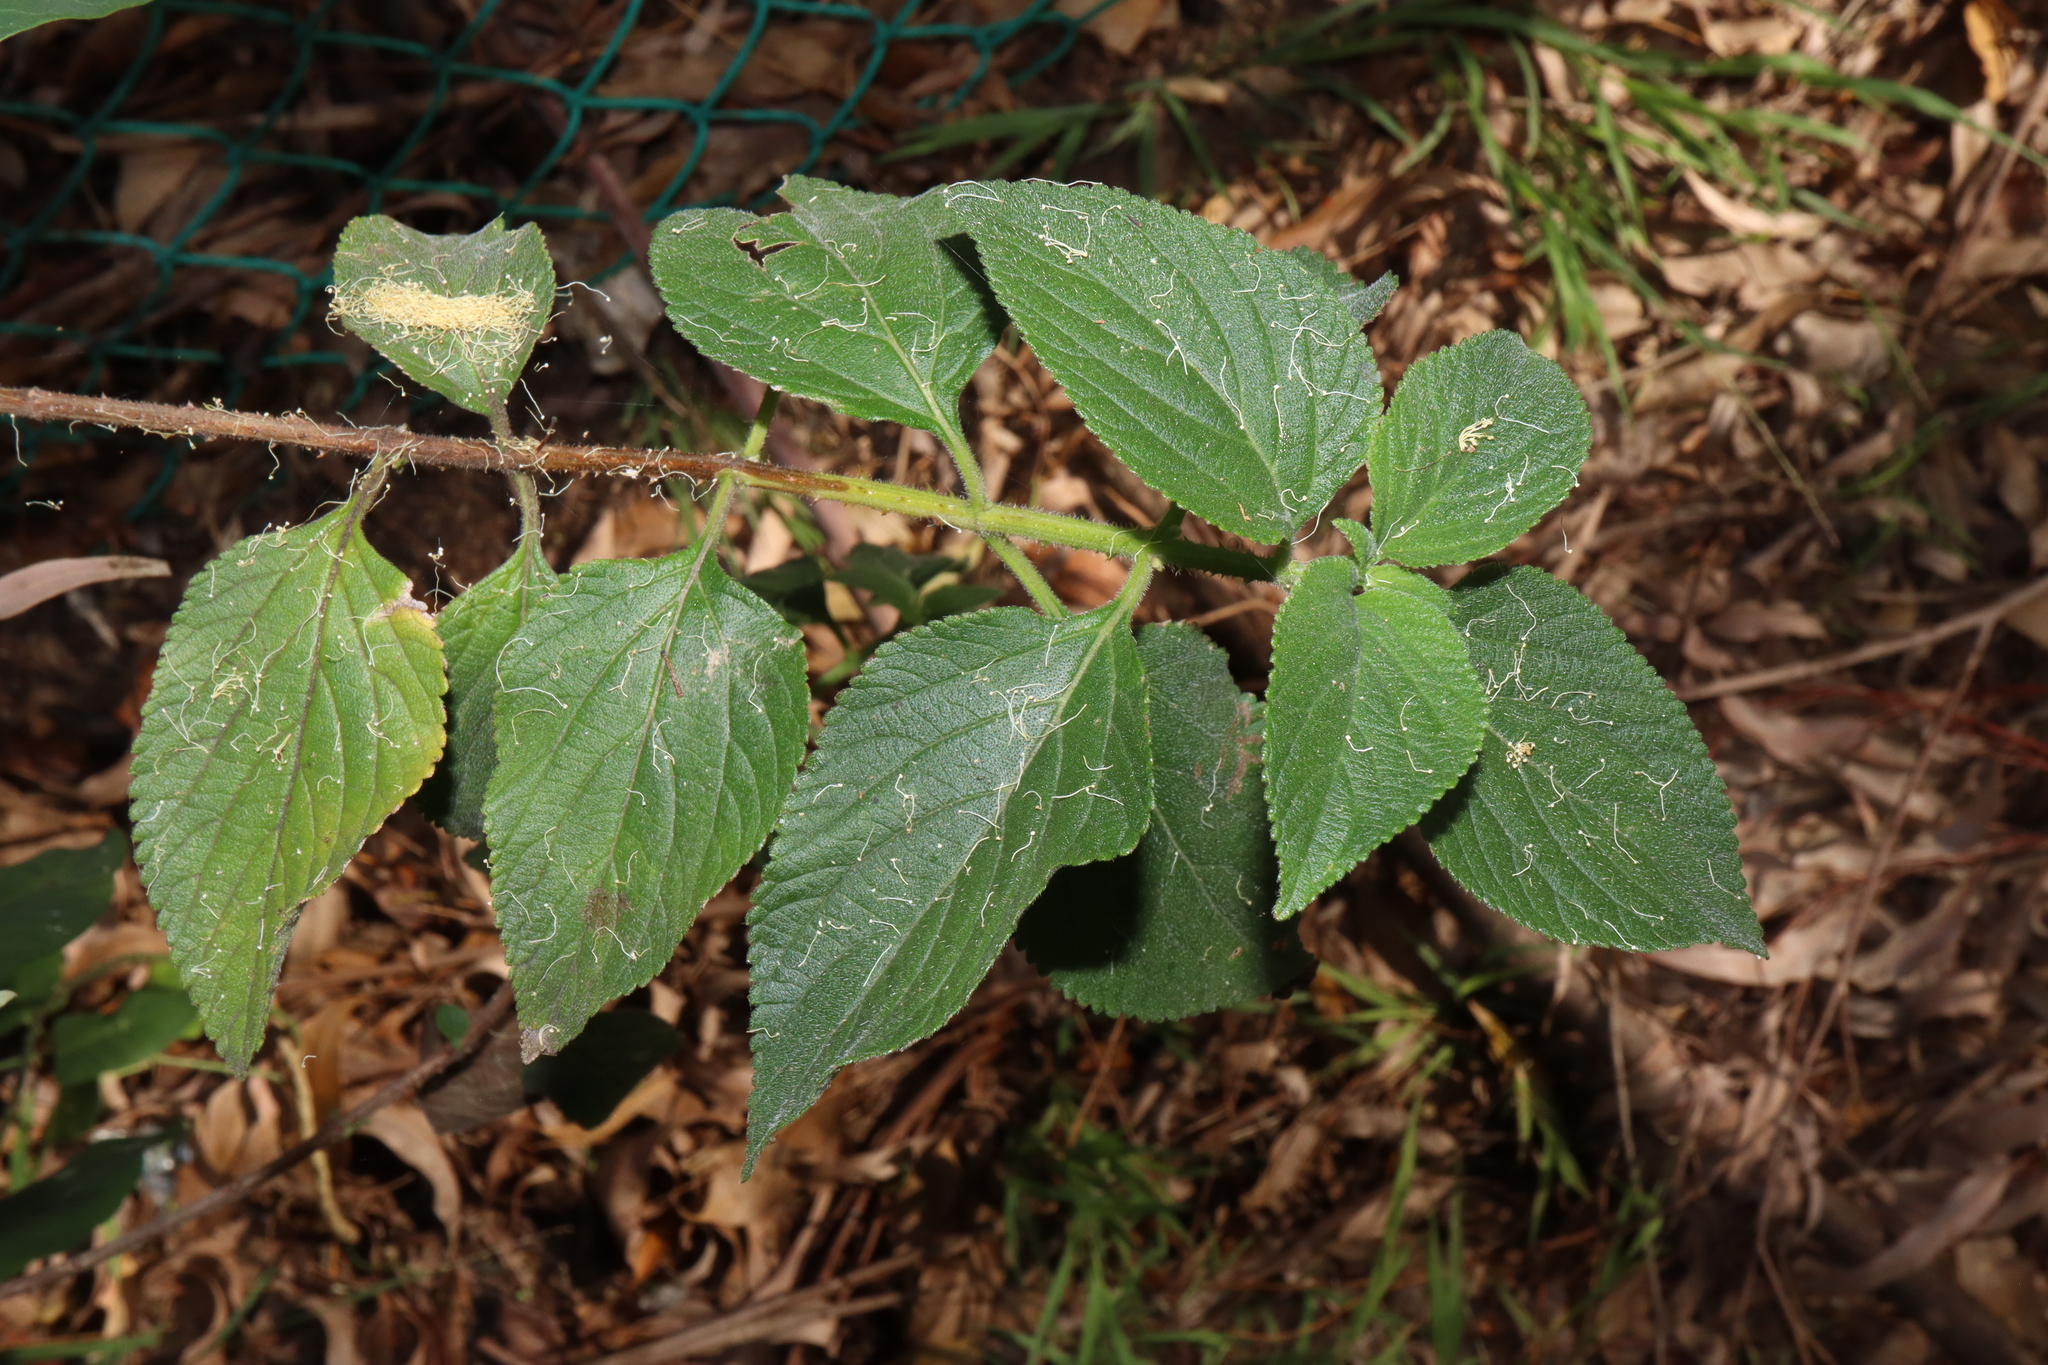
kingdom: Plantae
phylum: Tracheophyta
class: Magnoliopsida
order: Lamiales
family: Verbenaceae
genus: Lantana
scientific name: Lantana camara
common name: Lantana
